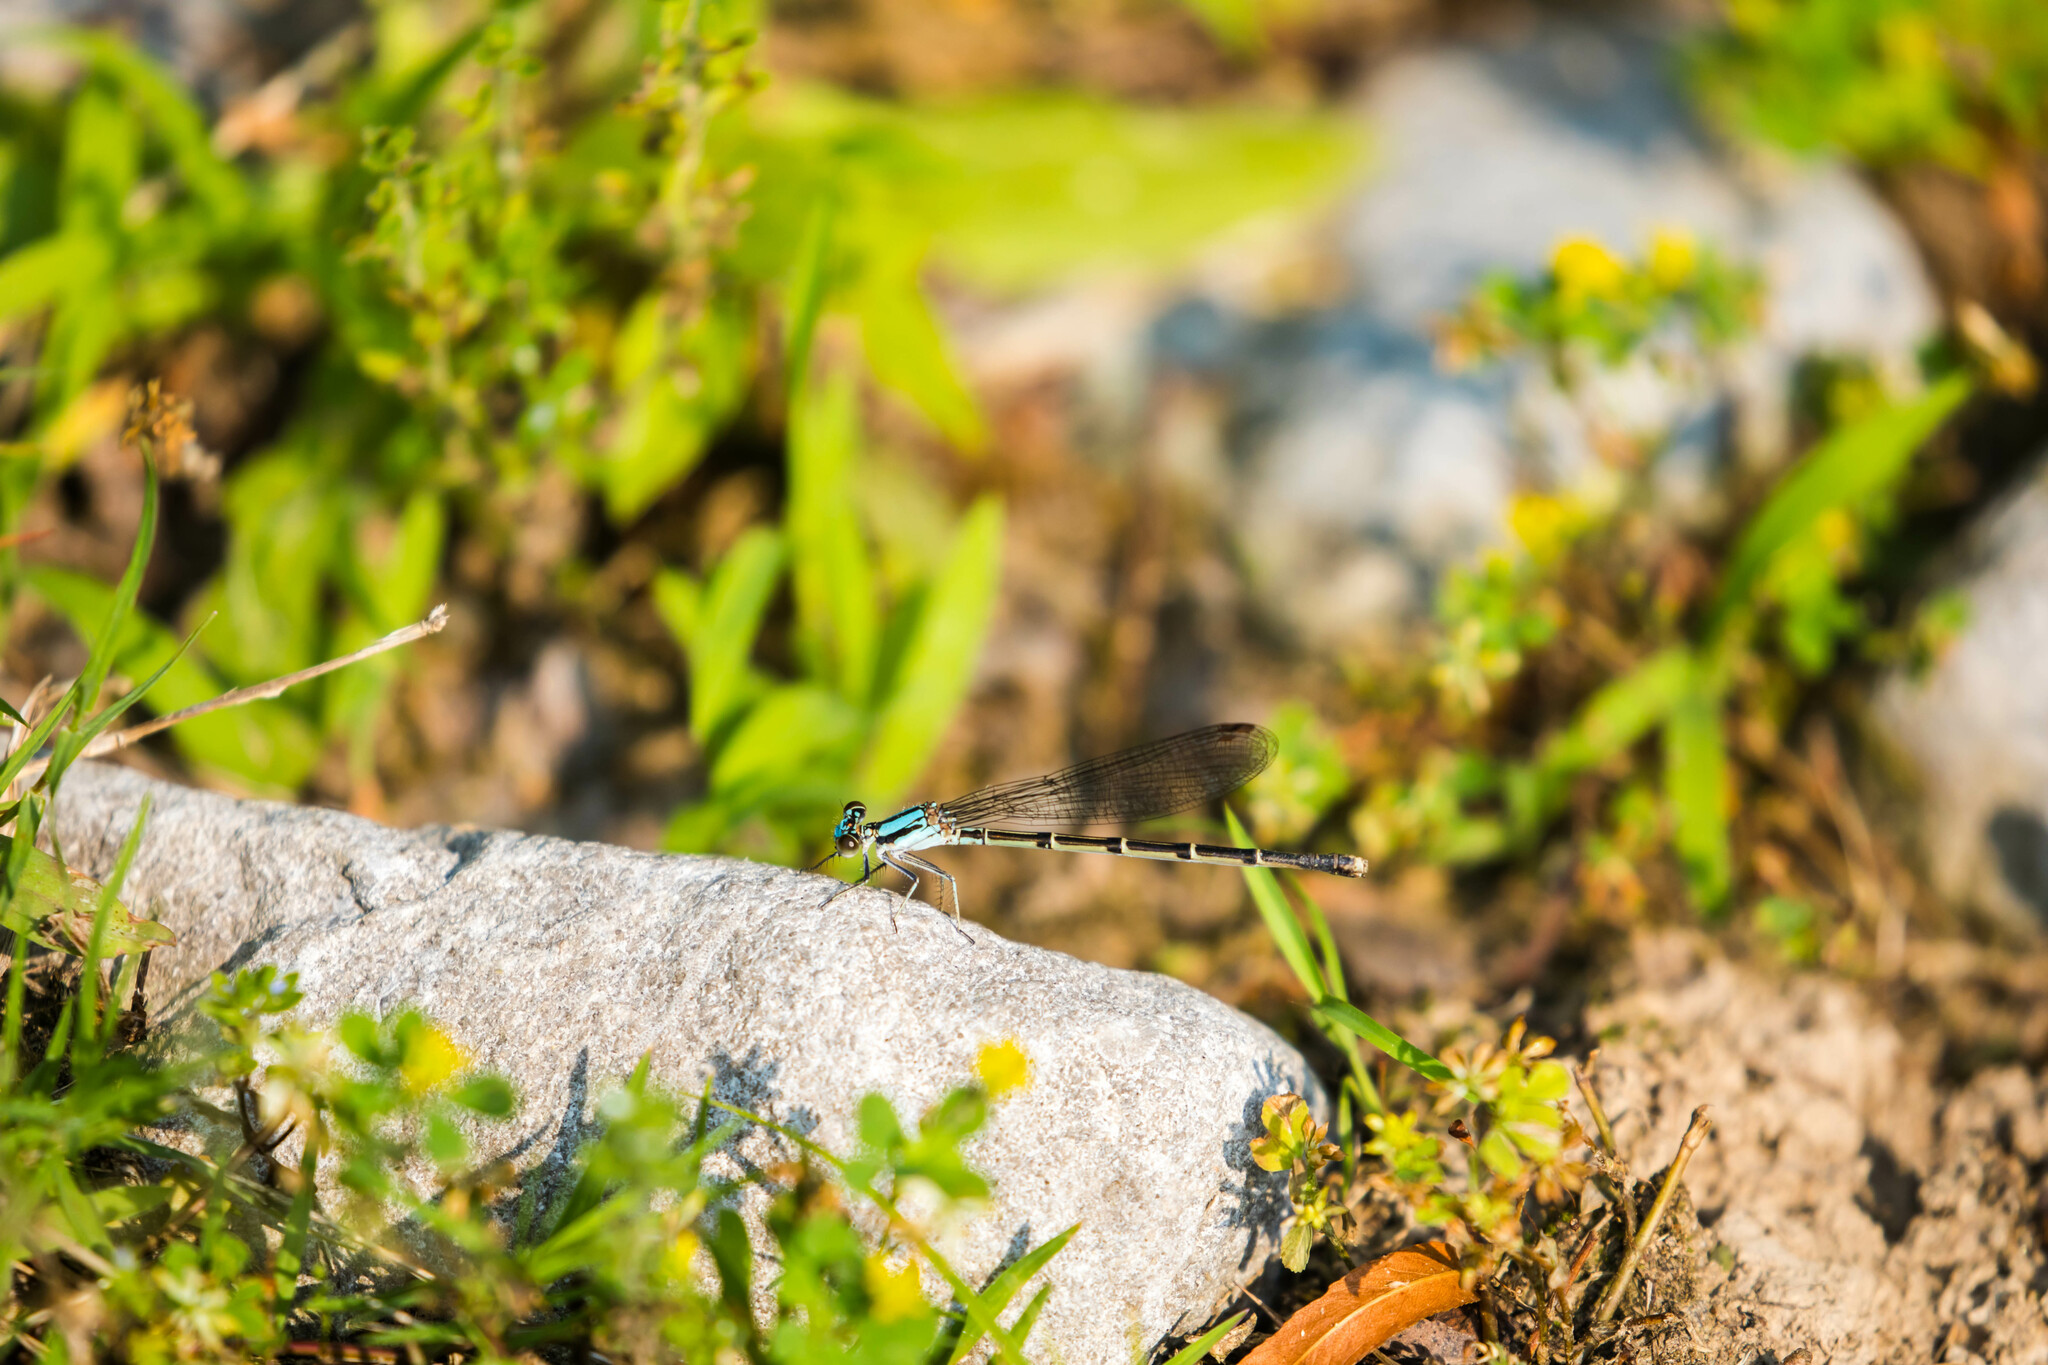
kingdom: Animalia
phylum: Arthropoda
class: Insecta
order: Odonata
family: Coenagrionidae
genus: Argia
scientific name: Argia sedula
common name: Blue-ringed dancer
